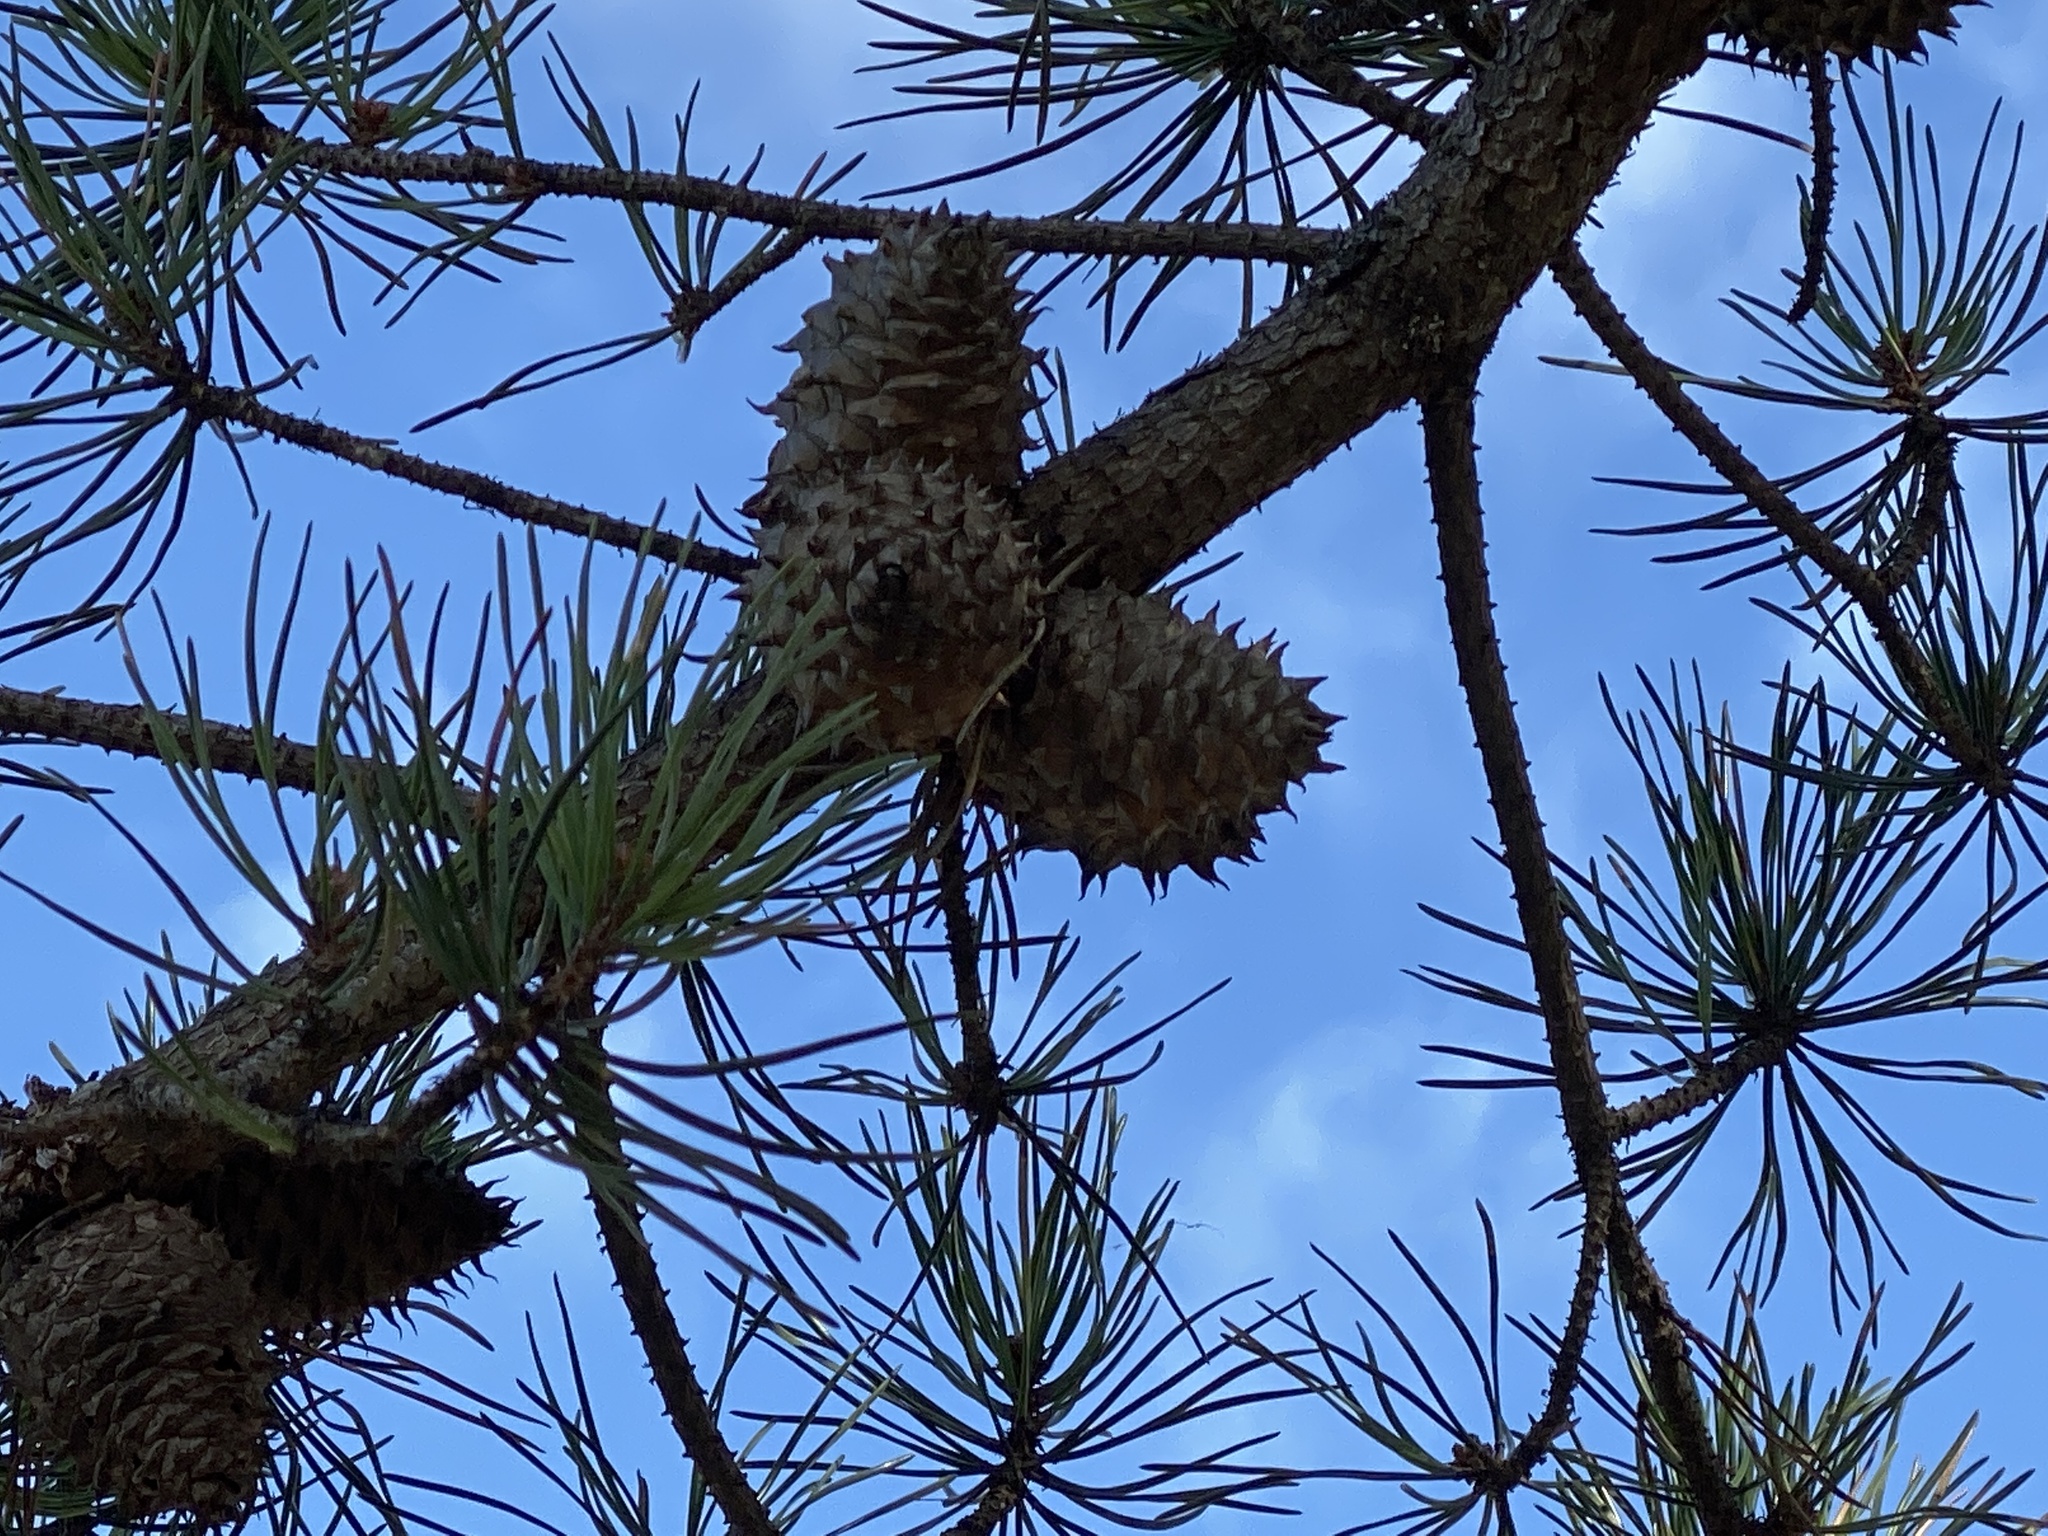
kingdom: Plantae
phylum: Tracheophyta
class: Pinopsida
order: Pinales
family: Pinaceae
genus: Pinus
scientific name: Pinus pungens
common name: Hickory pine
